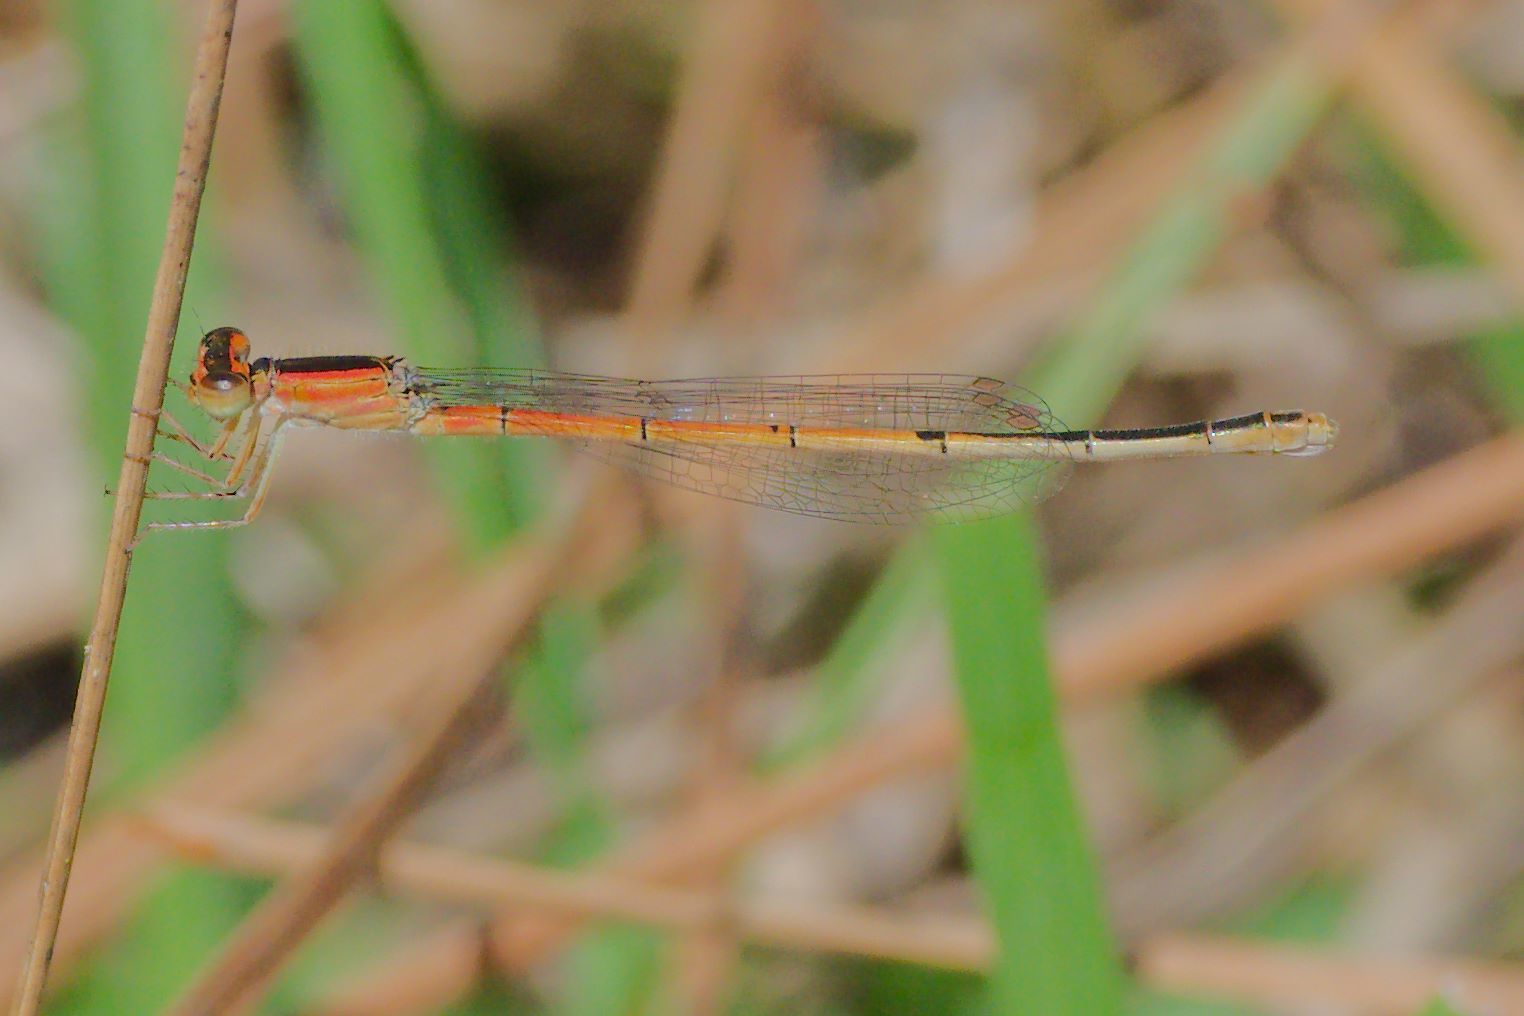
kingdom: Animalia
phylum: Arthropoda
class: Insecta
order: Odonata
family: Coenagrionidae
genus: Ischnura
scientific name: Ischnura hastata
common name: Citrine forktail
